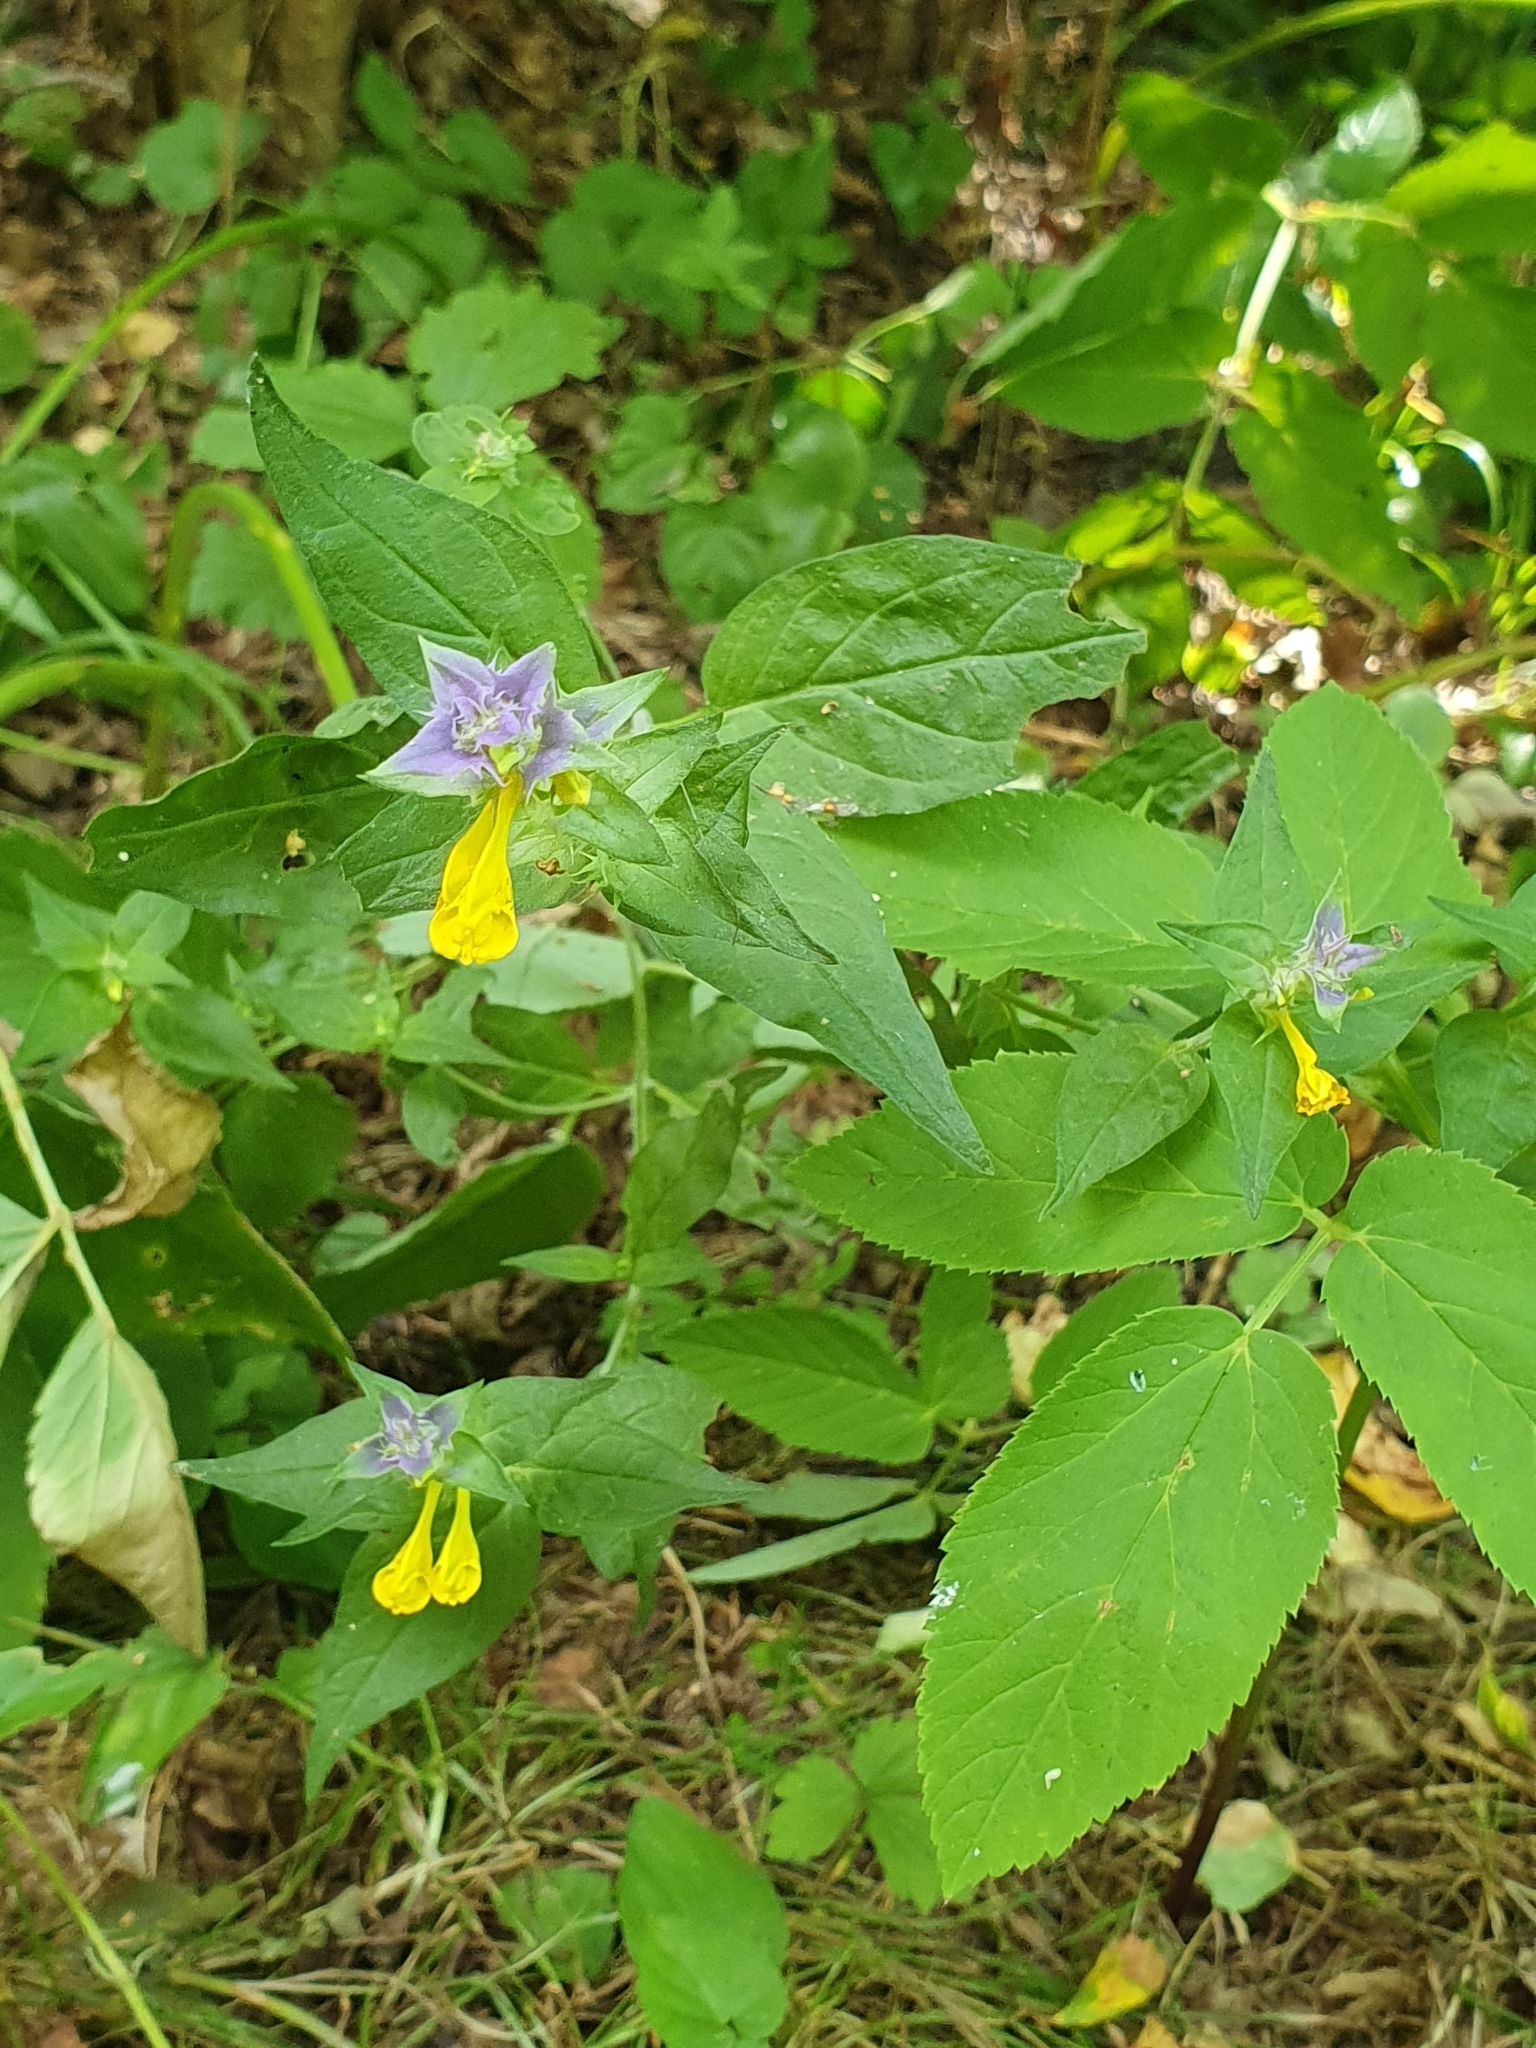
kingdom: Plantae
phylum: Tracheophyta
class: Magnoliopsida
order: Lamiales
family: Orobanchaceae
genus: Melampyrum
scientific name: Melampyrum nemorosum
